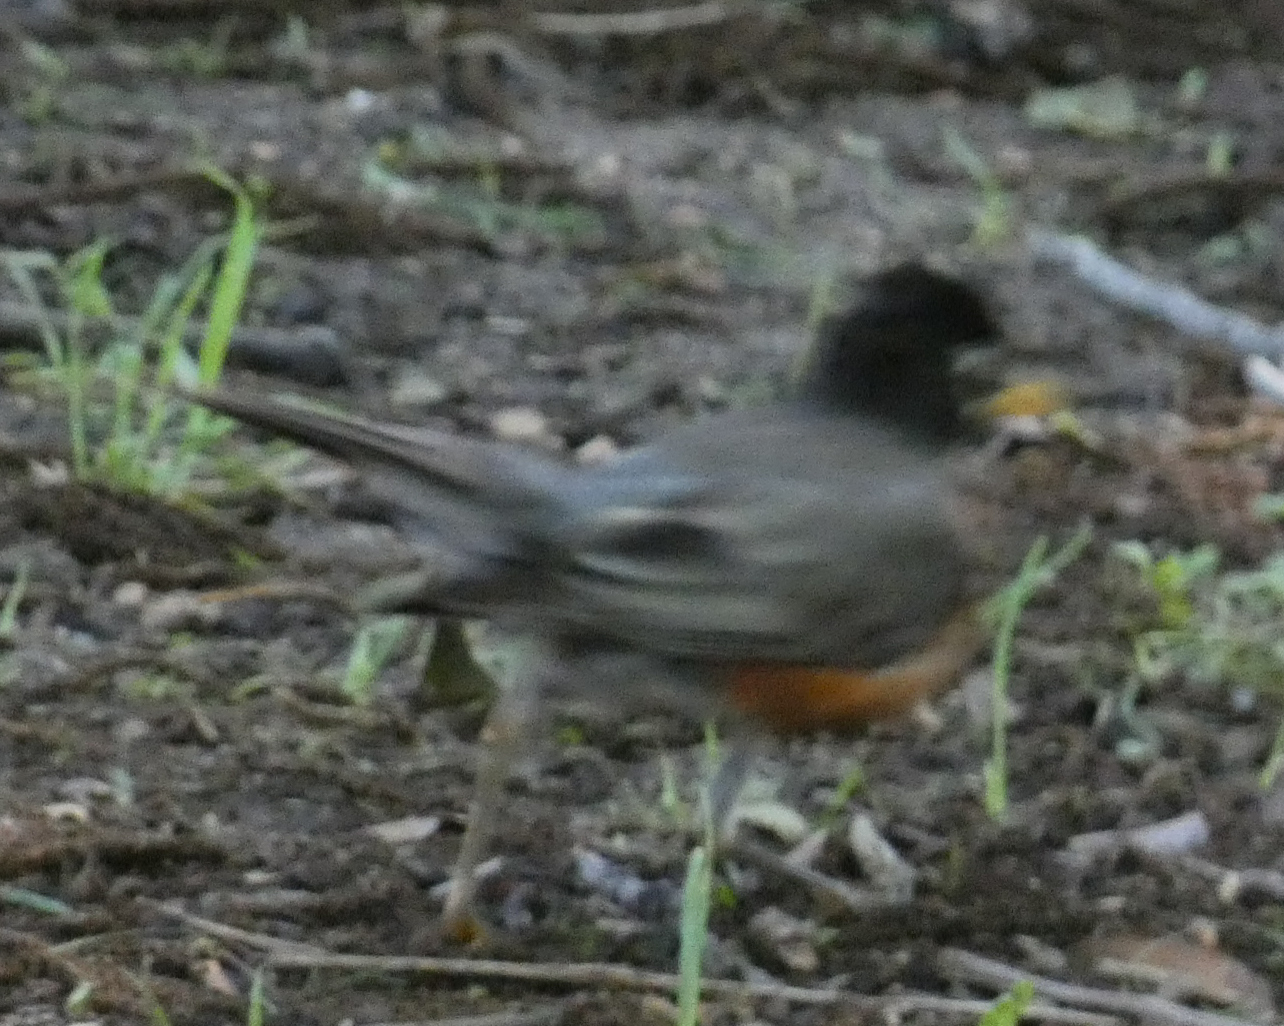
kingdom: Animalia
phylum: Chordata
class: Aves
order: Passeriformes
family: Turdidae
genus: Turdus
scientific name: Turdus migratorius
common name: American robin
